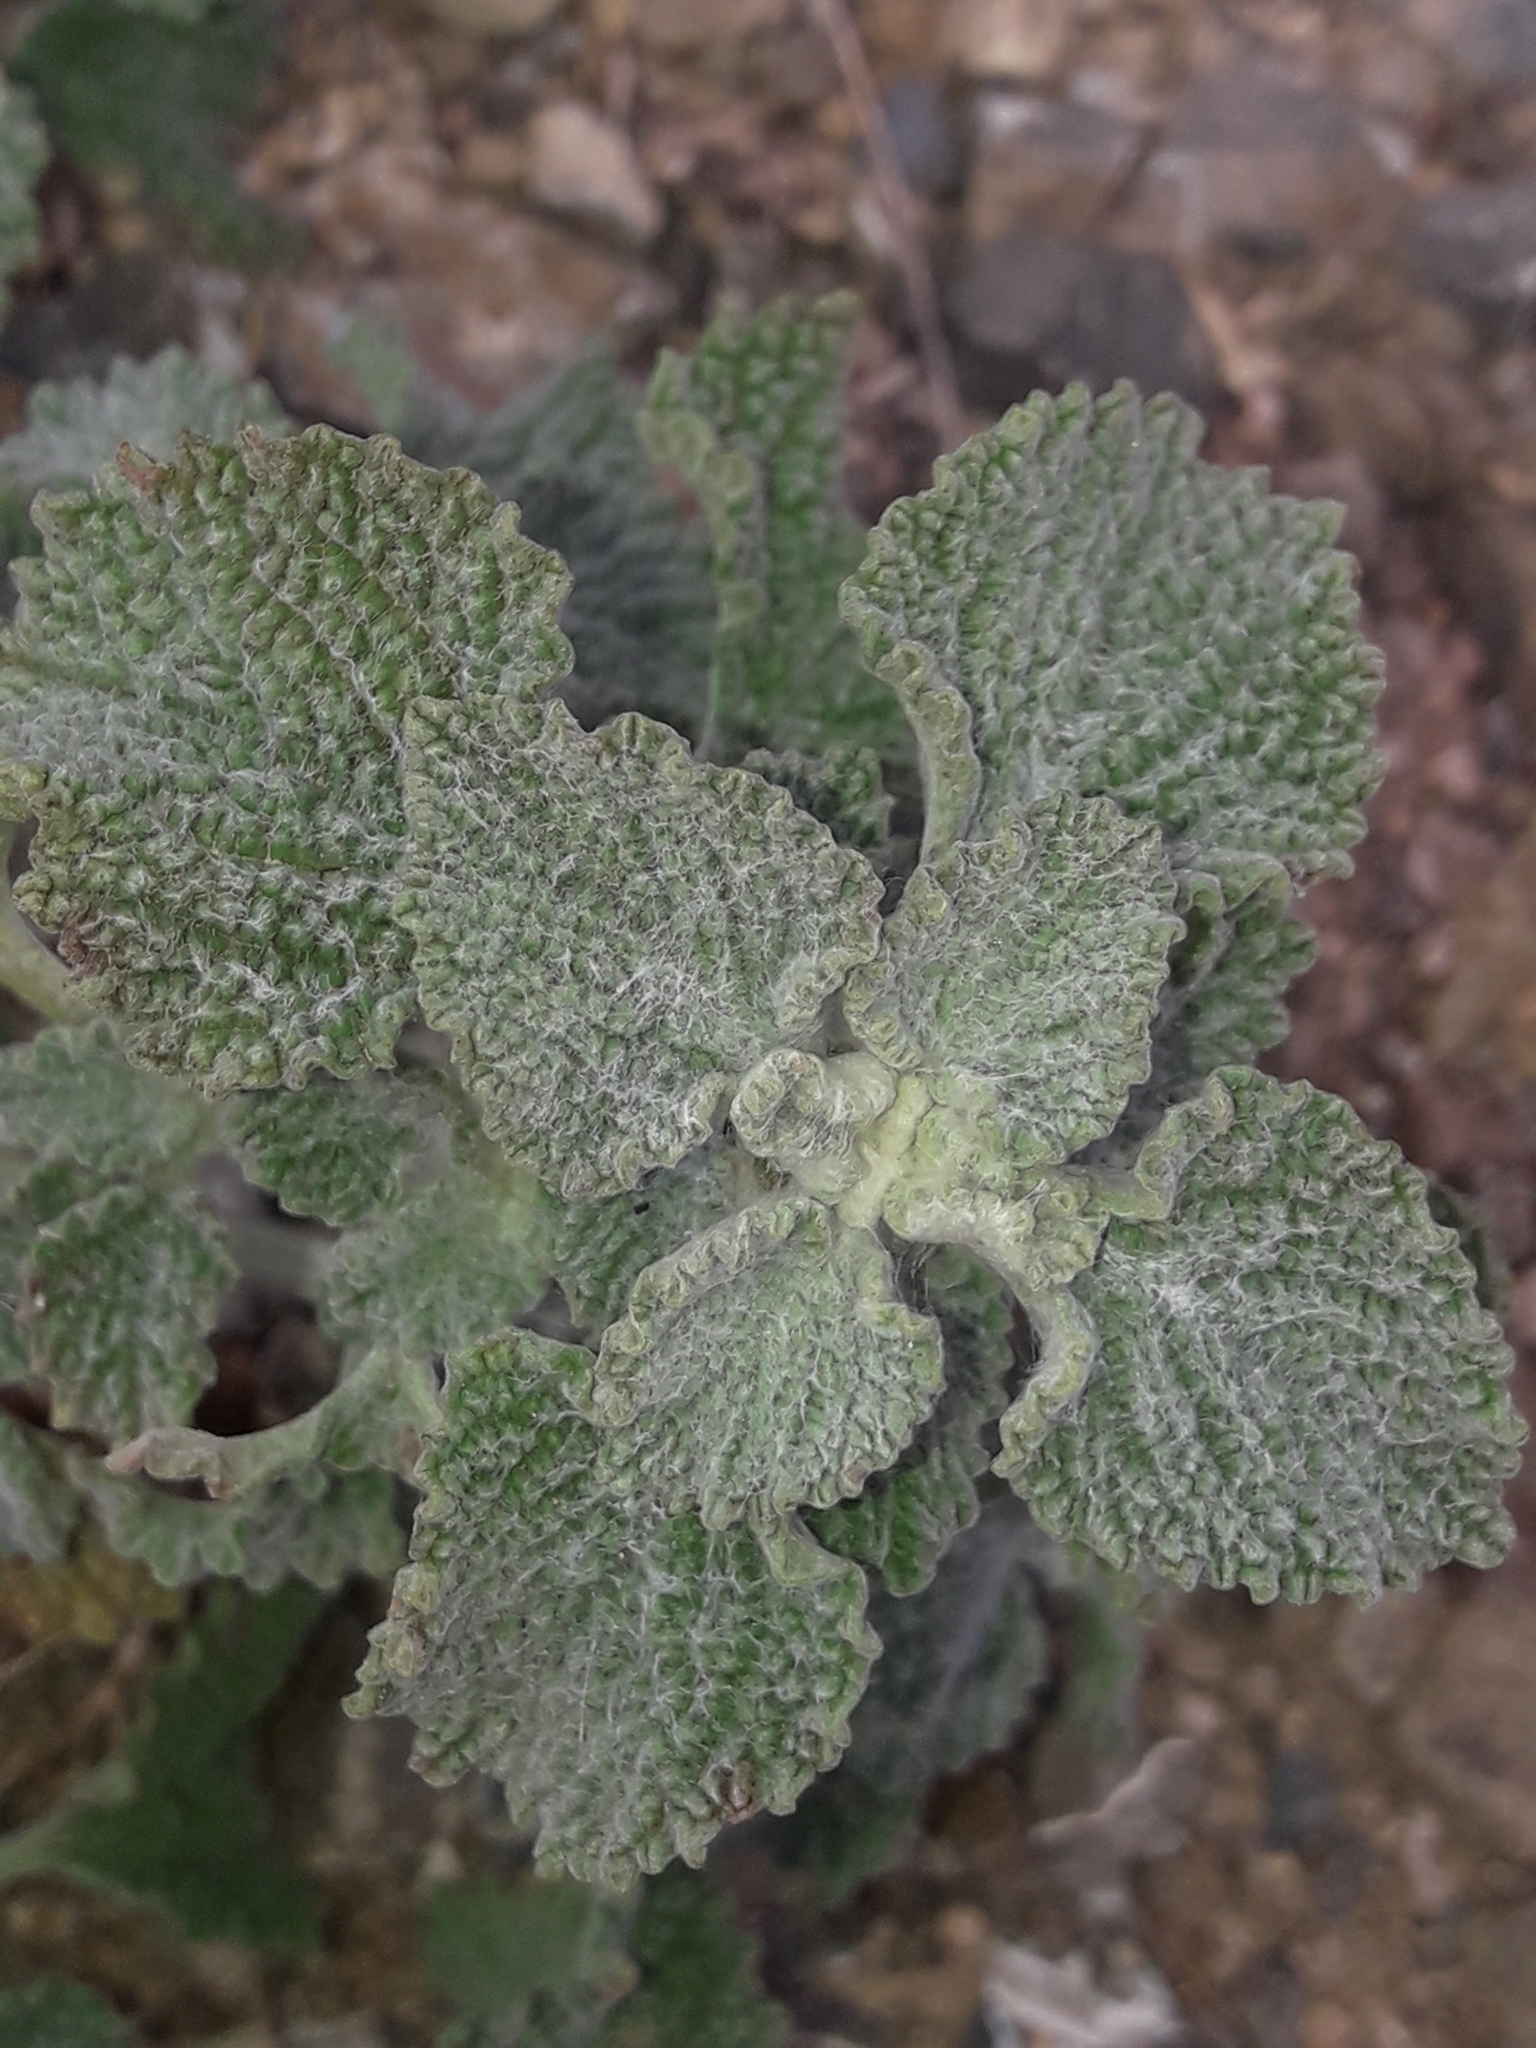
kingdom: Plantae
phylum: Tracheophyta
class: Magnoliopsida
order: Lamiales
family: Lamiaceae
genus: Marrubium
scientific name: Marrubium vulgare
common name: Horehound
